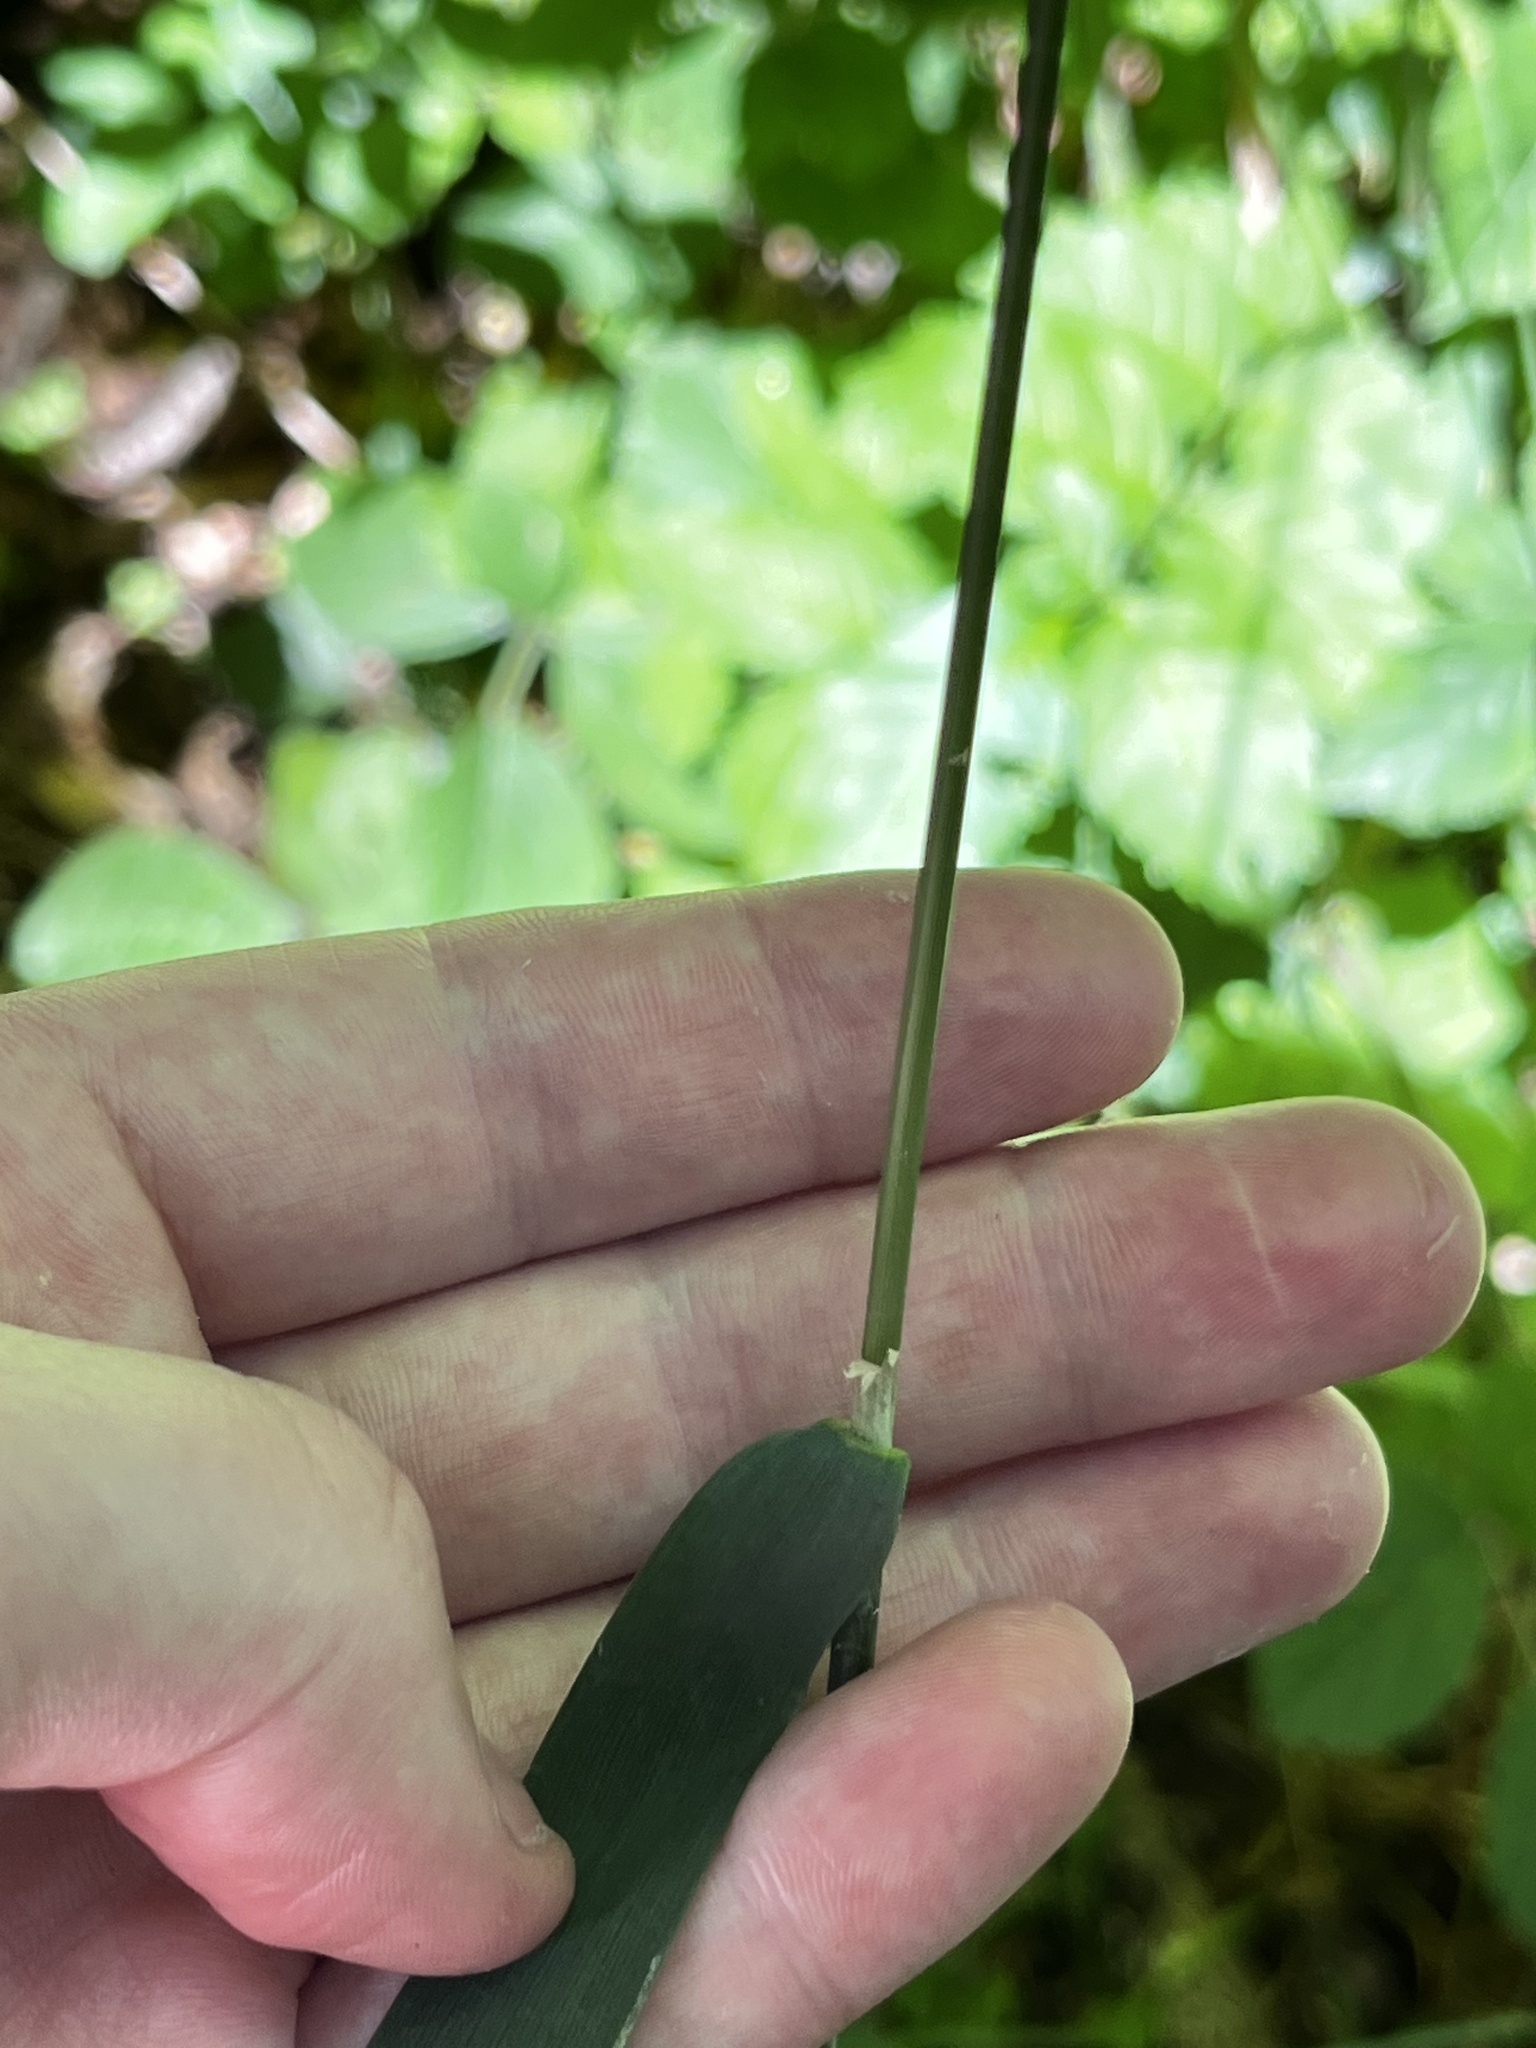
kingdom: Plantae
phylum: Tracheophyta
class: Liliopsida
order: Poales
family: Poaceae
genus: Milium
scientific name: Milium effusum
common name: Wood millet
